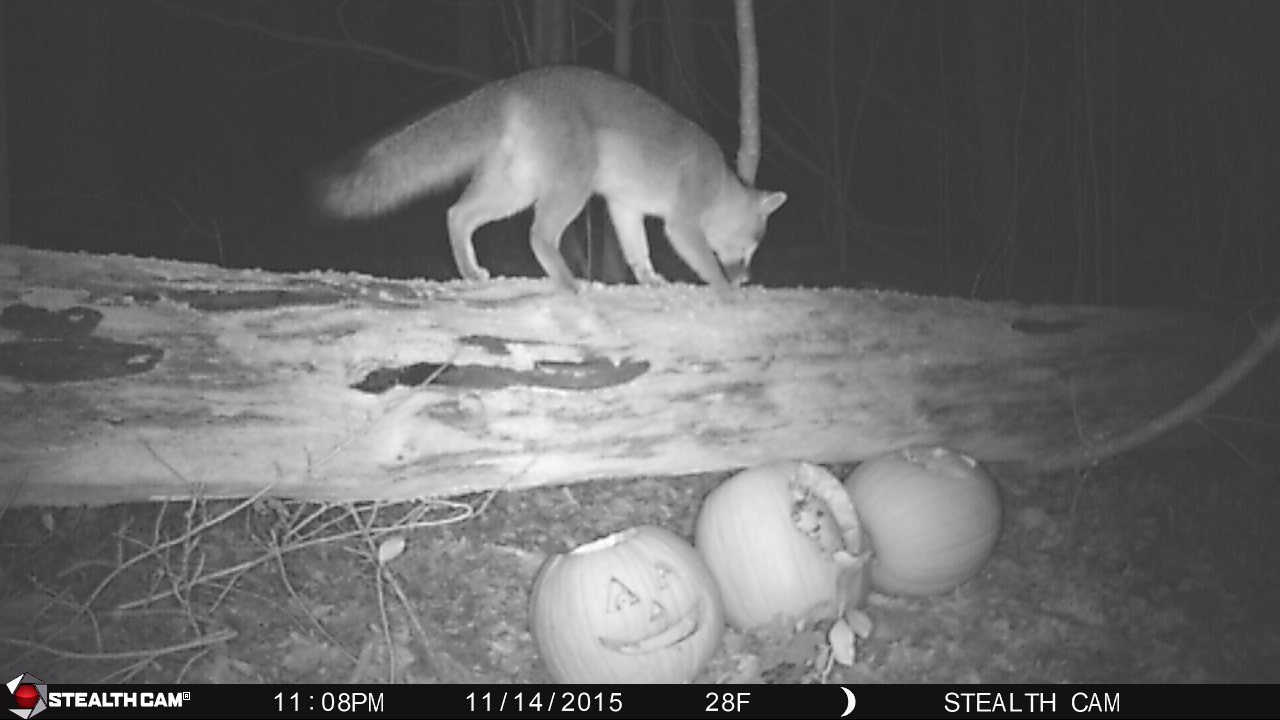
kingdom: Animalia
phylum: Chordata
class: Mammalia
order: Carnivora
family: Canidae
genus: Urocyon
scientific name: Urocyon cinereoargenteus
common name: Gray fox
